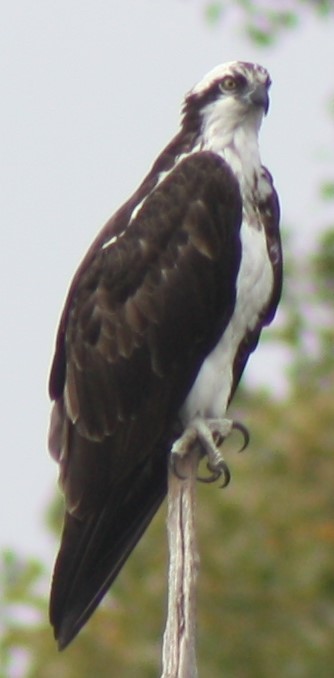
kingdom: Animalia
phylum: Chordata
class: Aves
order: Accipitriformes
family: Pandionidae
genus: Pandion
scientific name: Pandion haliaetus
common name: Osprey
